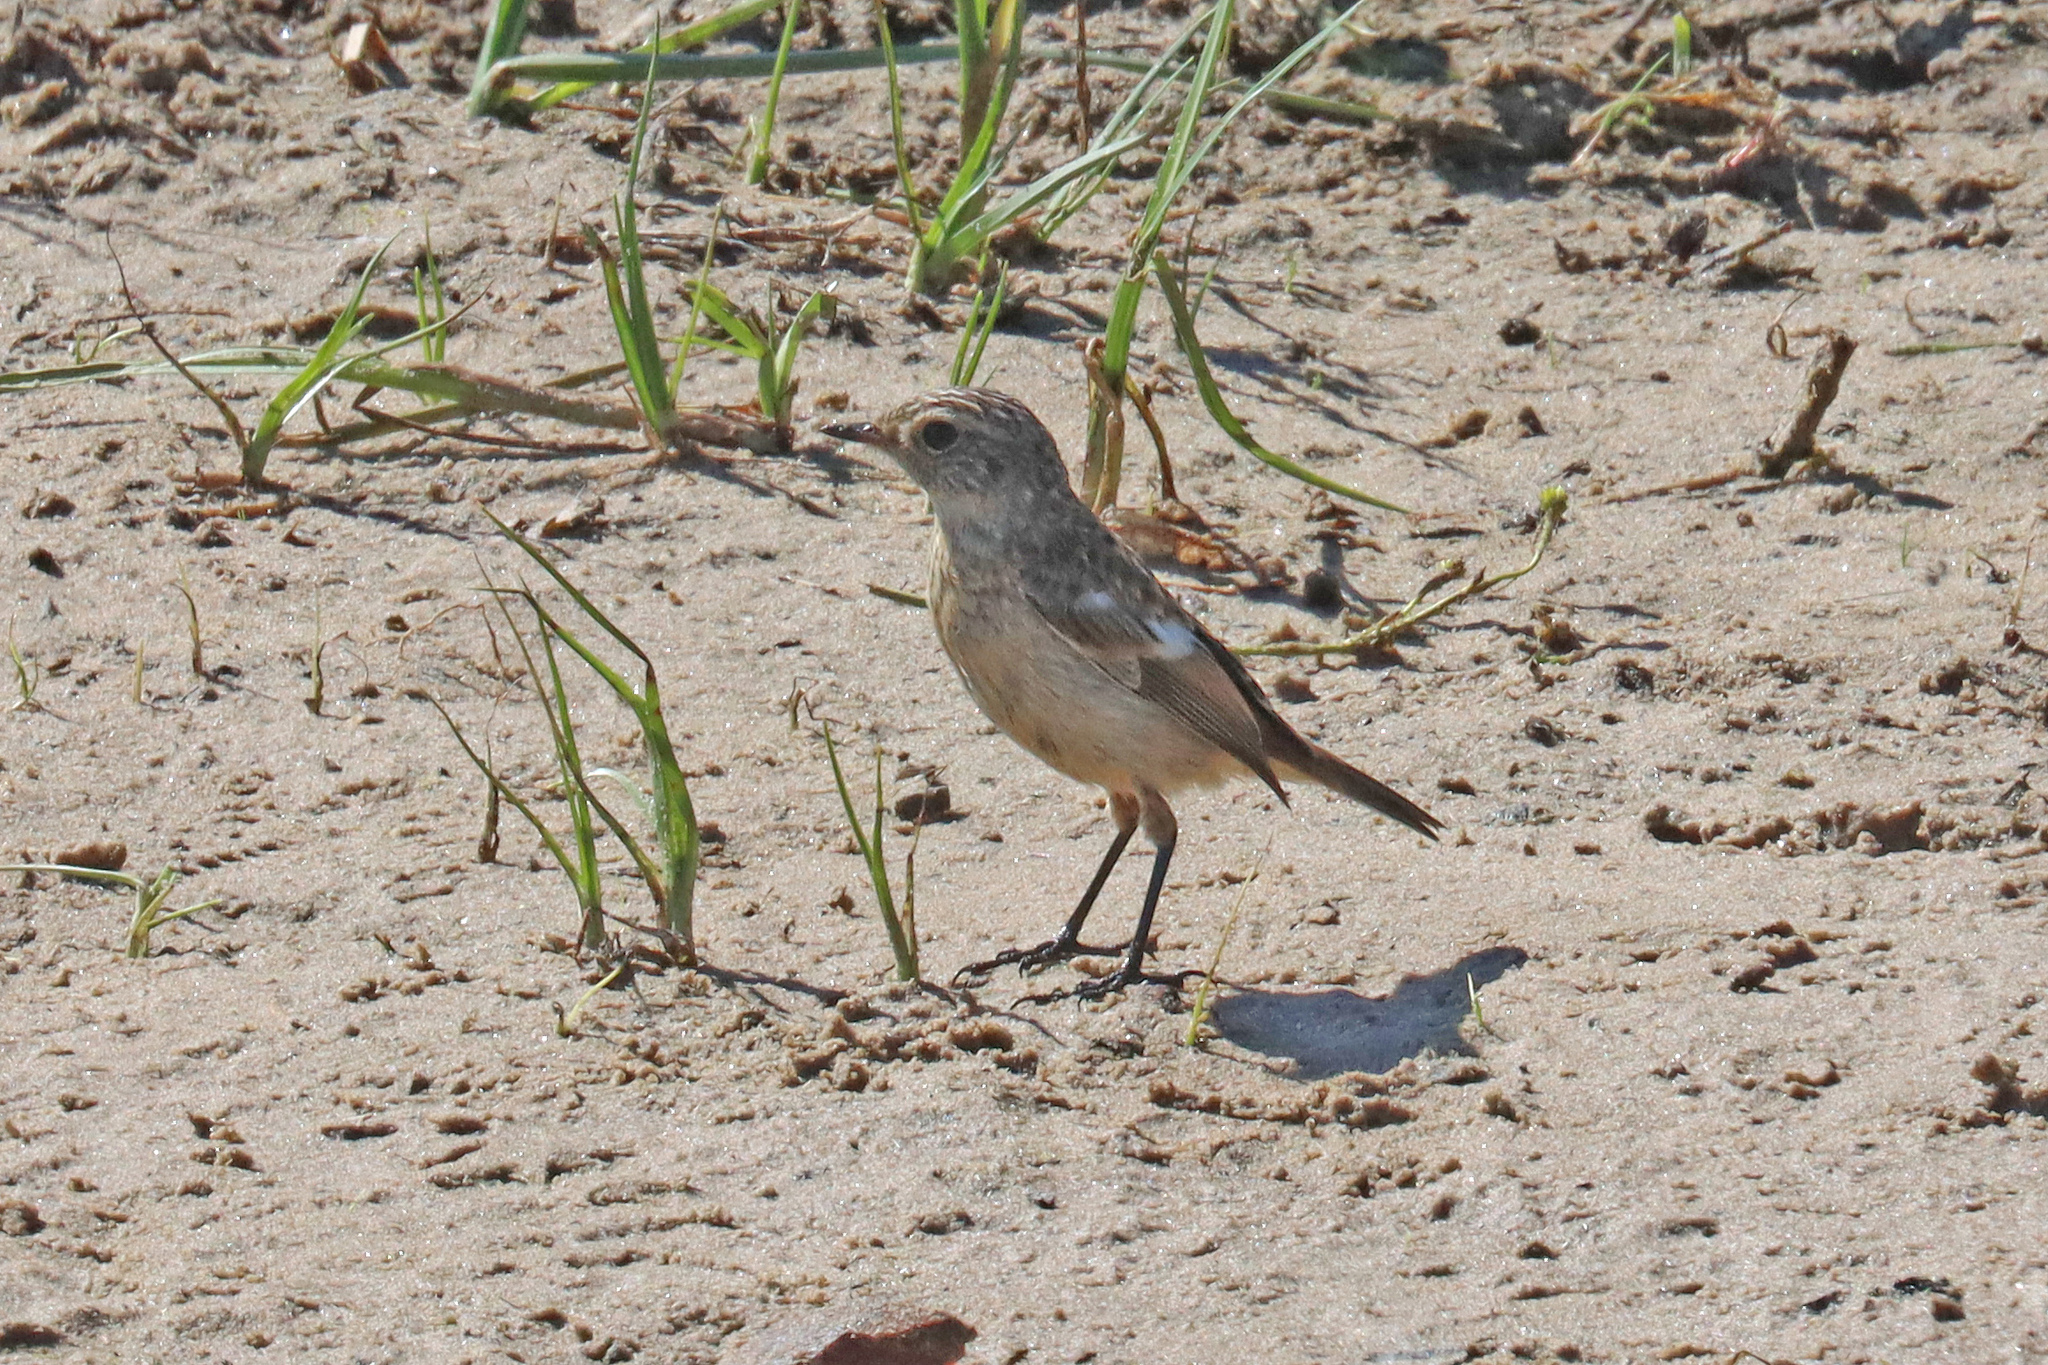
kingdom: Animalia
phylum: Chordata
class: Aves
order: Passeriformes
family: Muscicapidae
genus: Saxicola
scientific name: Saxicola rubicola
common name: European stonechat
